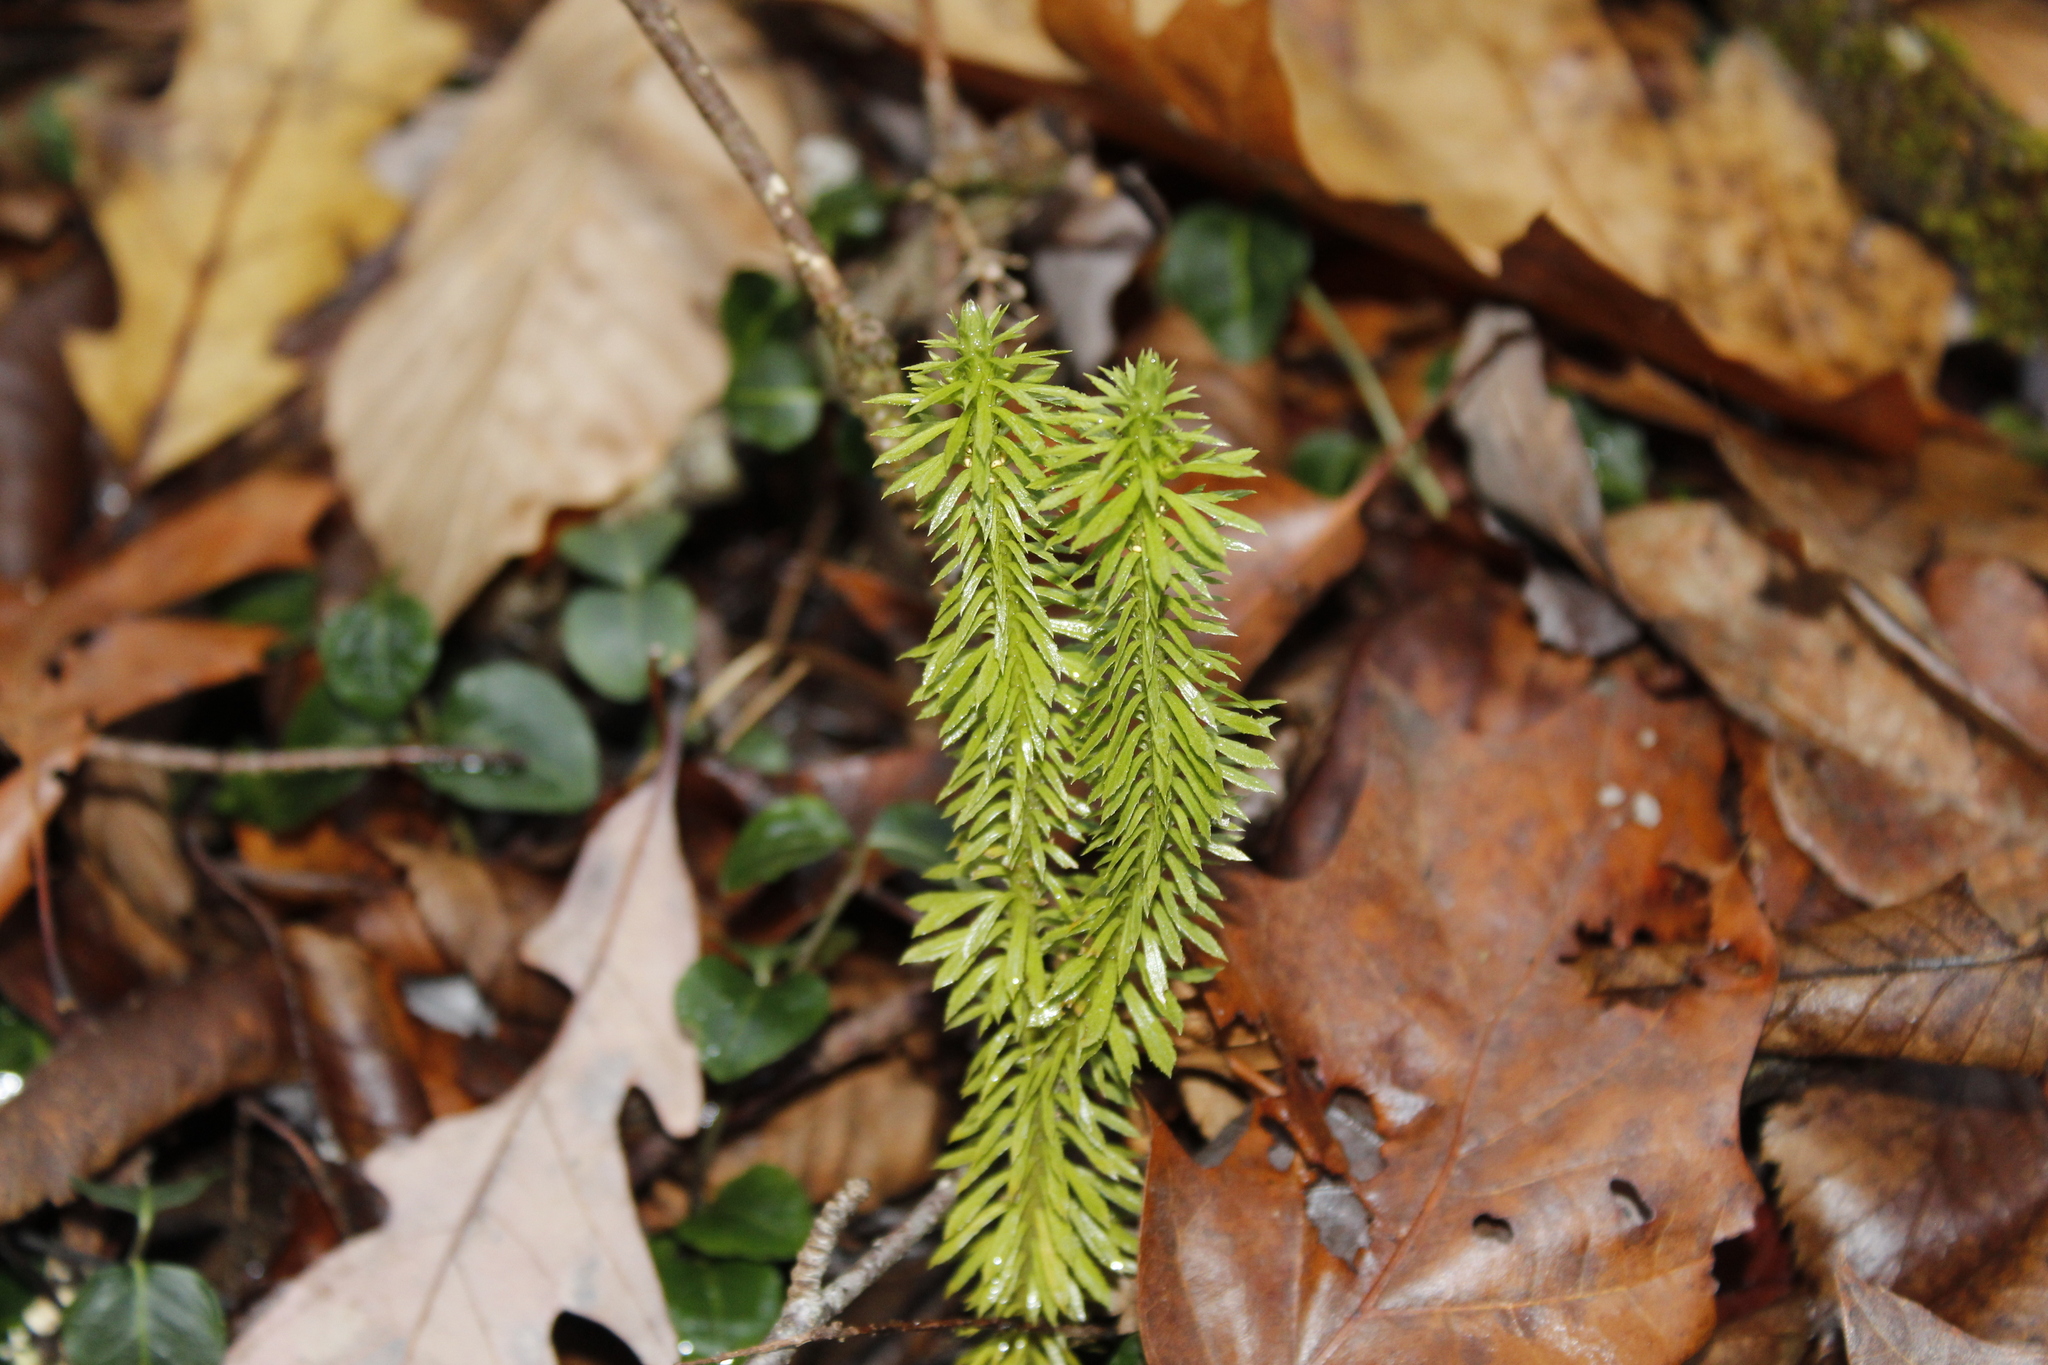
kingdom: Plantae
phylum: Tracheophyta
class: Lycopodiopsida
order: Lycopodiales
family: Lycopodiaceae
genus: Huperzia
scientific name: Huperzia lucidula
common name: Shining clubmoss
